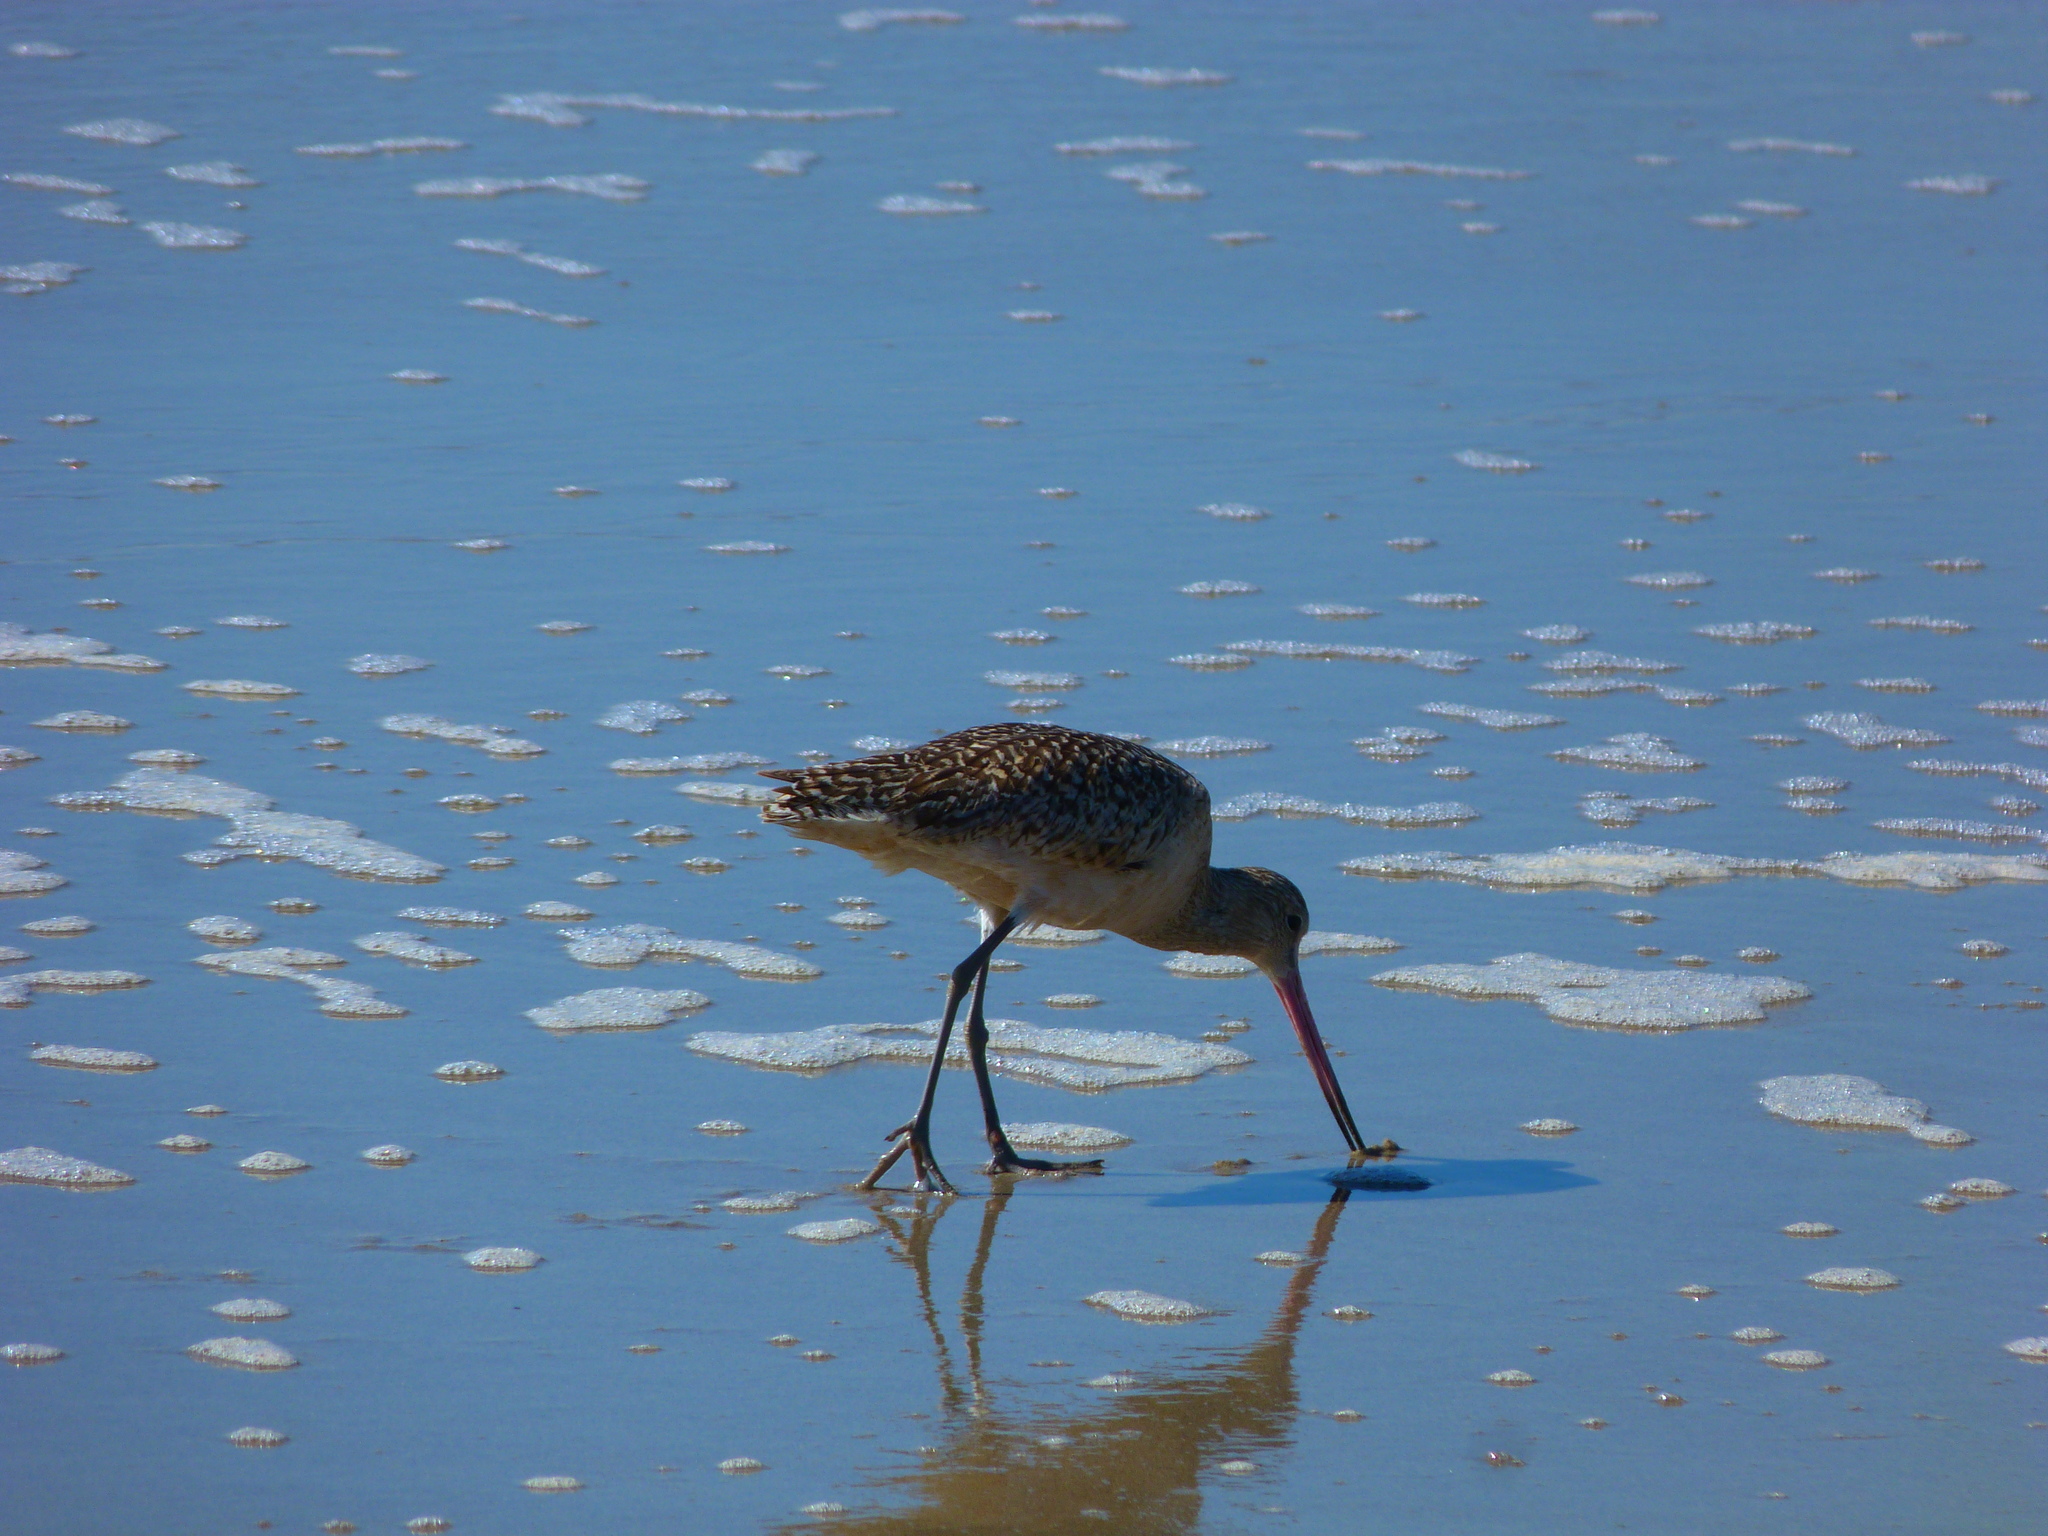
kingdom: Animalia
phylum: Chordata
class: Aves
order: Charadriiformes
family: Scolopacidae
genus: Limosa
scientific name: Limosa fedoa
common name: Marbled godwit
